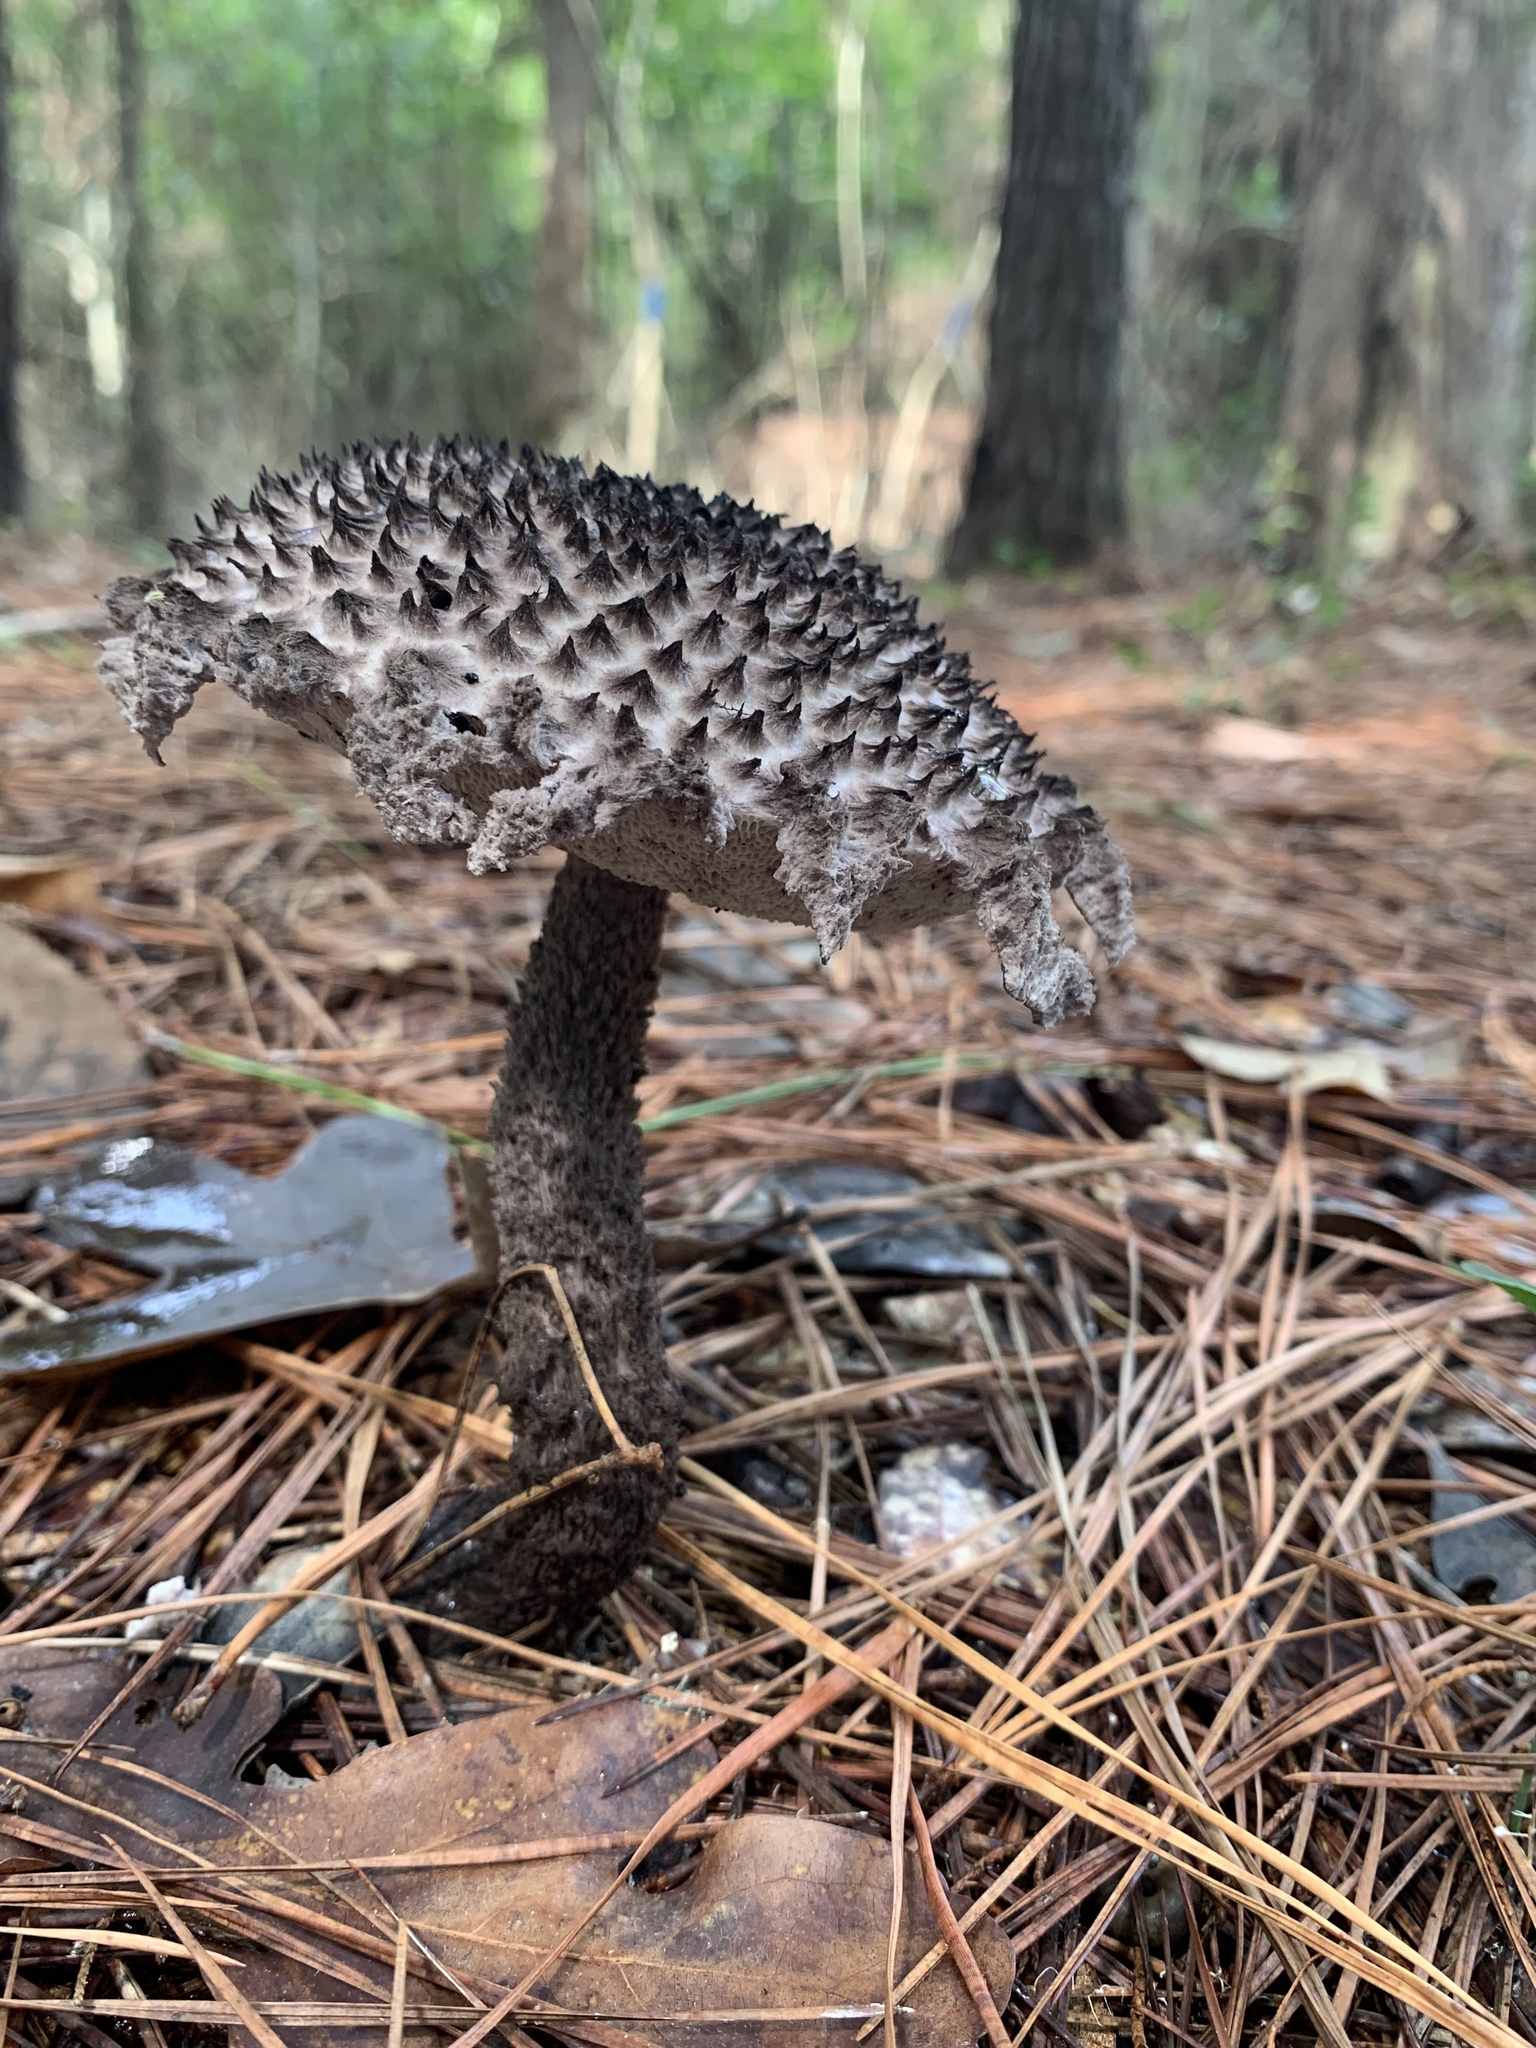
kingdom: Fungi
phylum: Basidiomycota
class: Agaricomycetes
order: Boletales
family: Boletaceae
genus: Strobilomyces
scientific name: Strobilomyces
